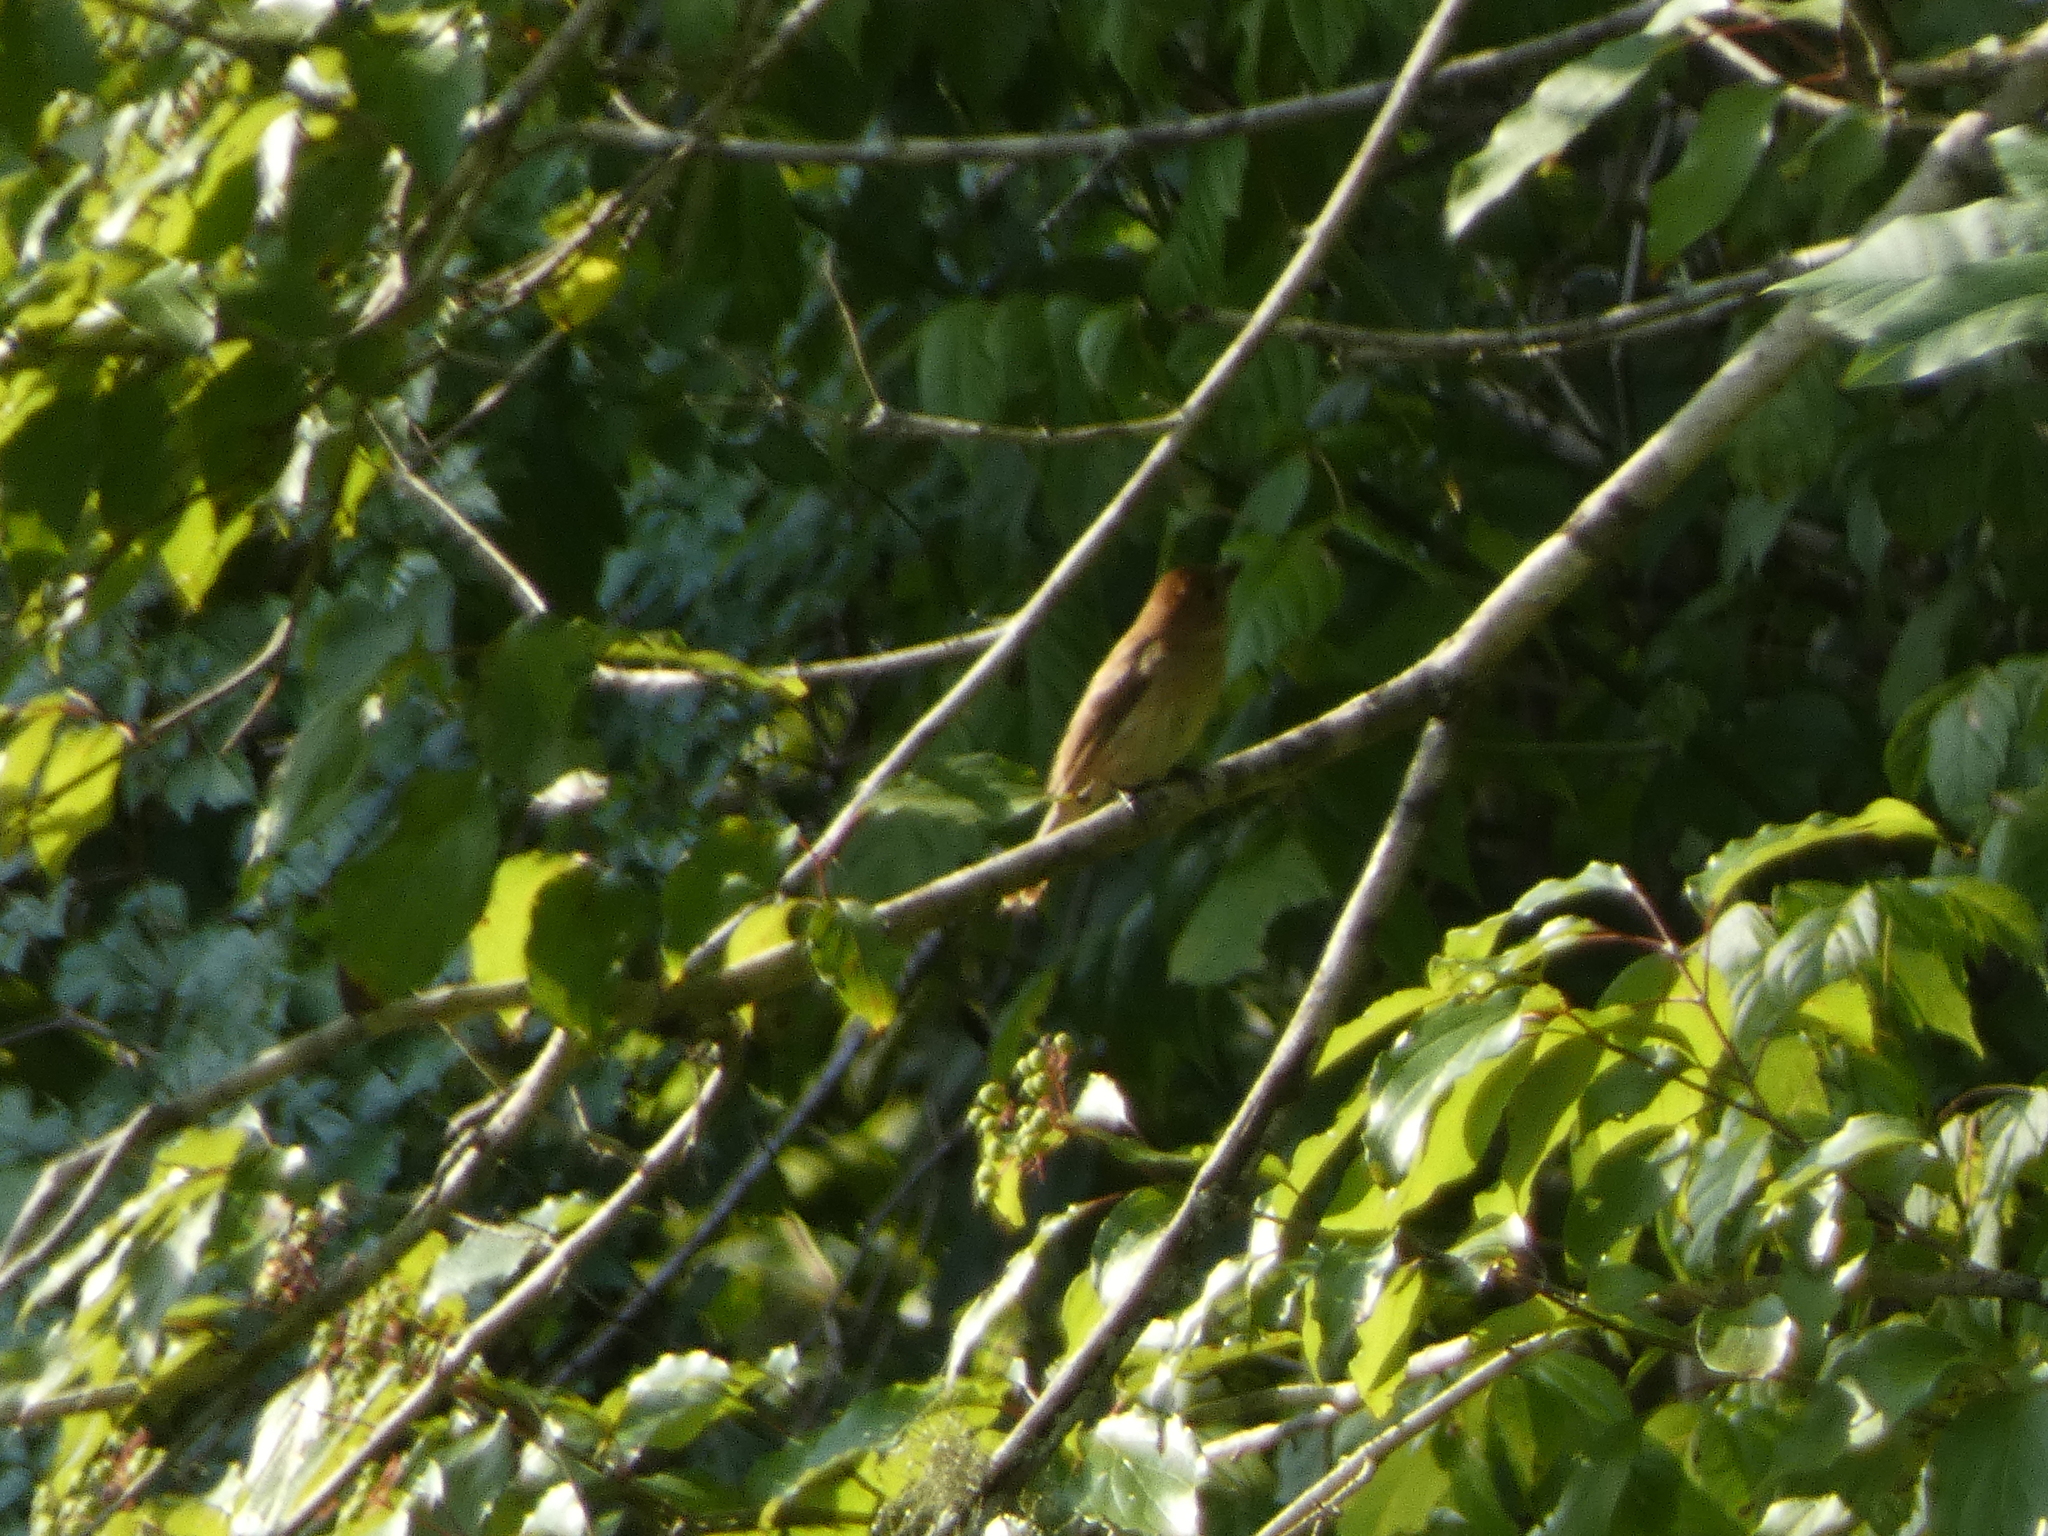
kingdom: Animalia
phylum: Chordata
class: Aves
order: Passeriformes
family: Cardinalidae
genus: Passerina
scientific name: Passerina cyanea
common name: Indigo bunting
